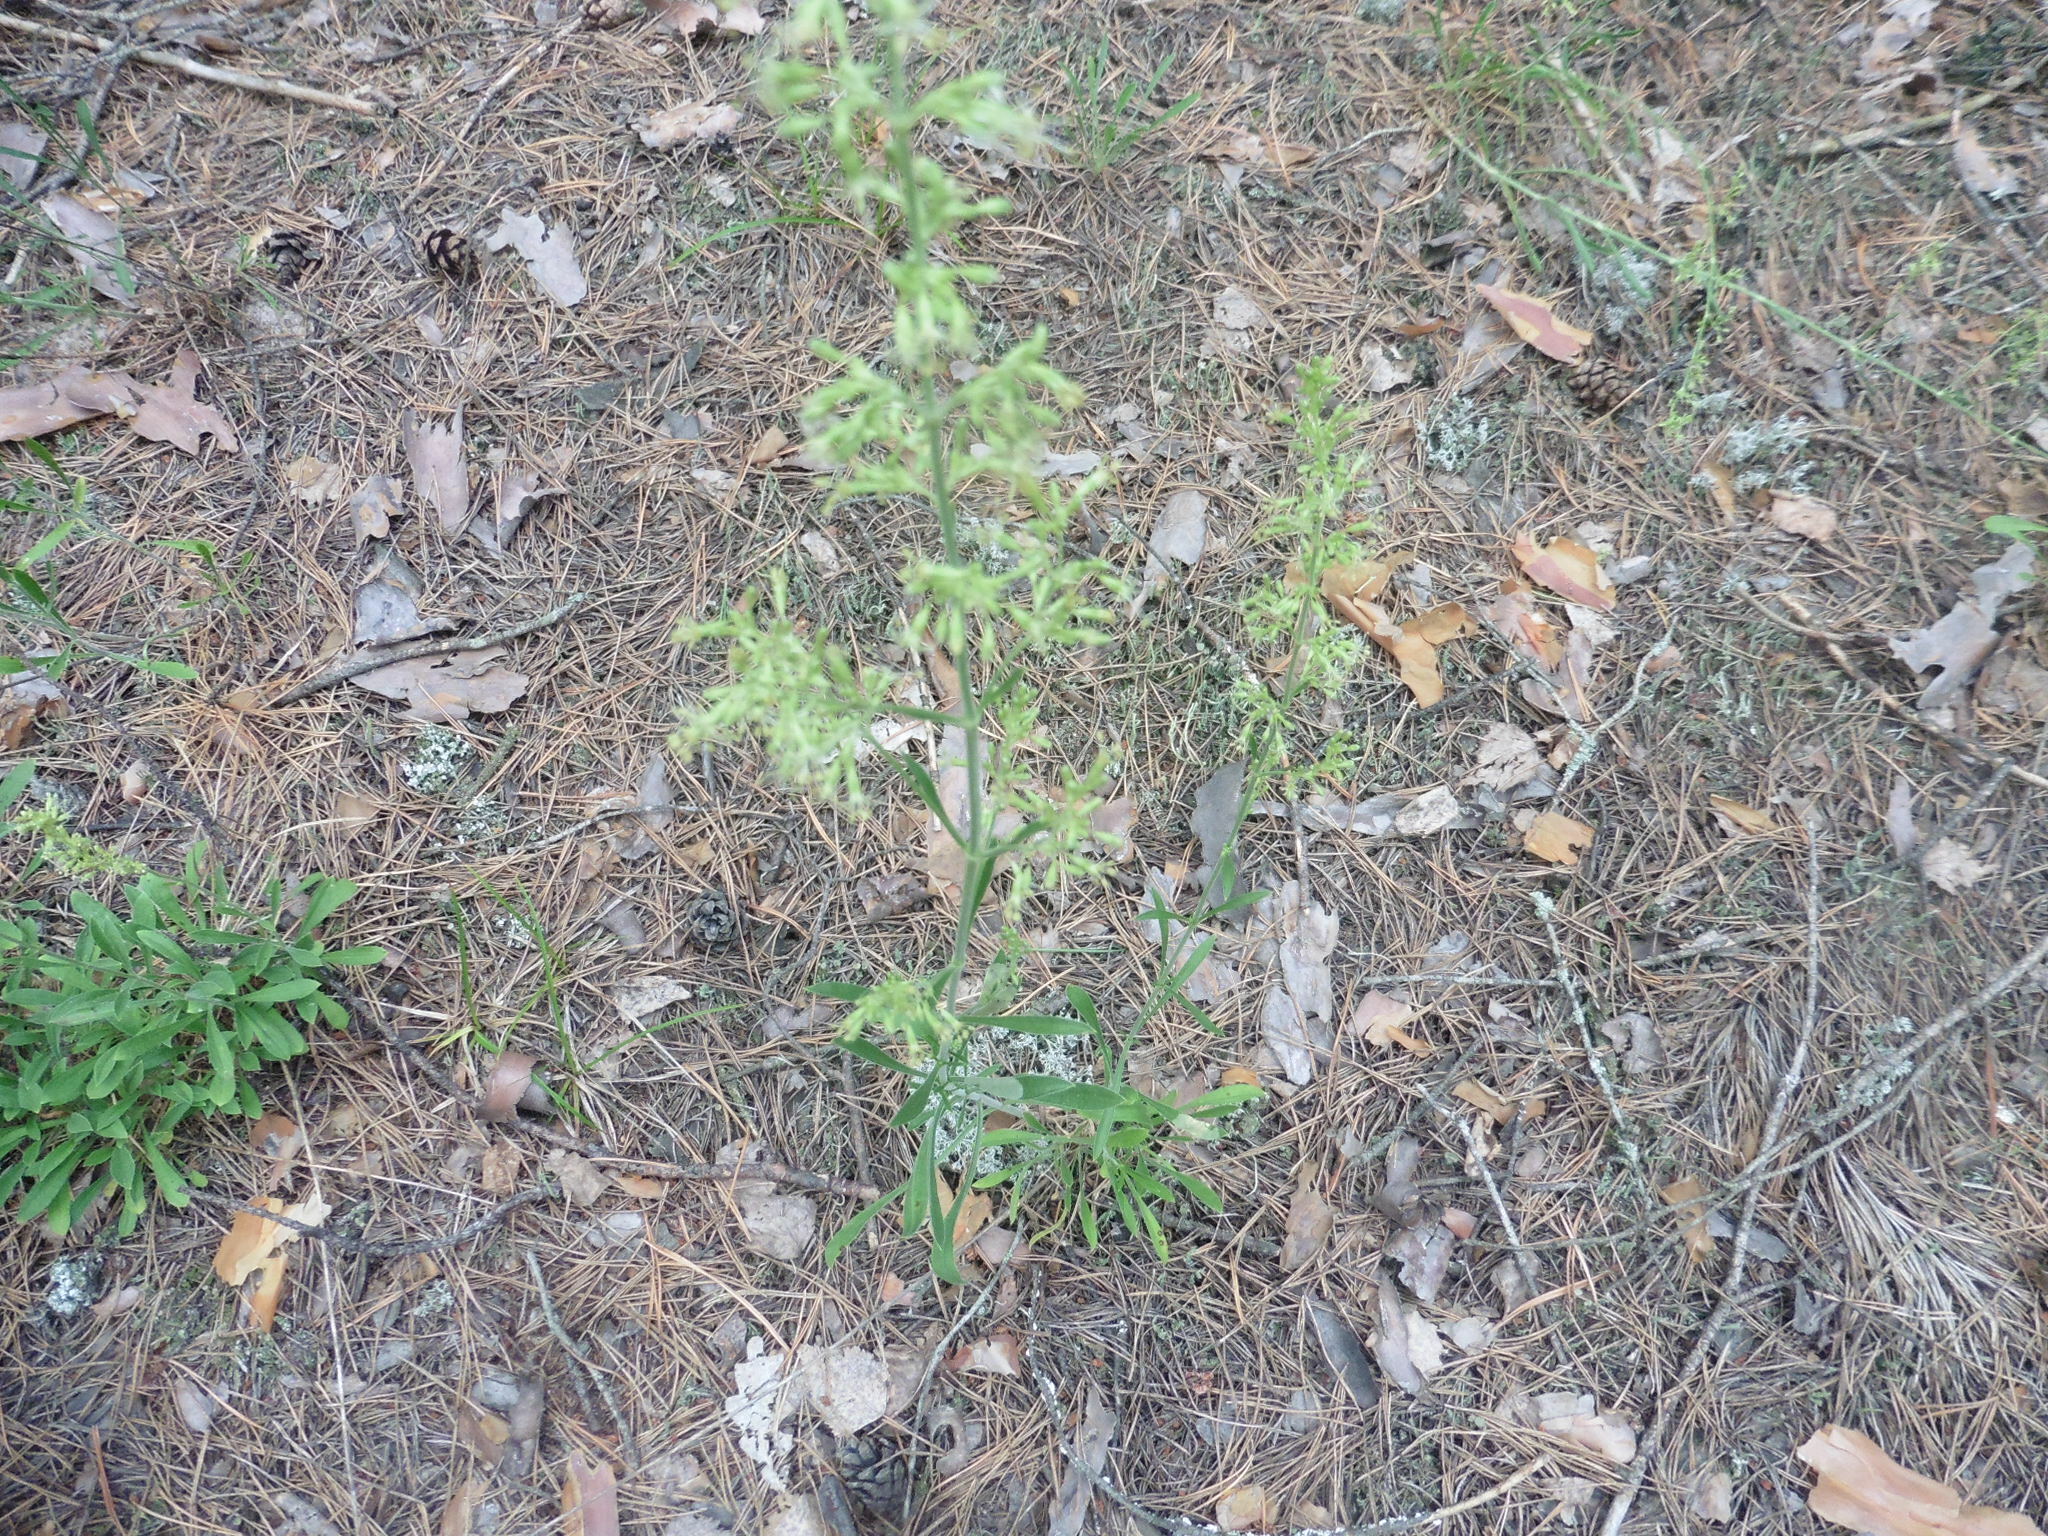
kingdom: Plantae
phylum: Tracheophyta
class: Magnoliopsida
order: Caryophyllales
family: Caryophyllaceae
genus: Silene
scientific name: Silene borysthenica
